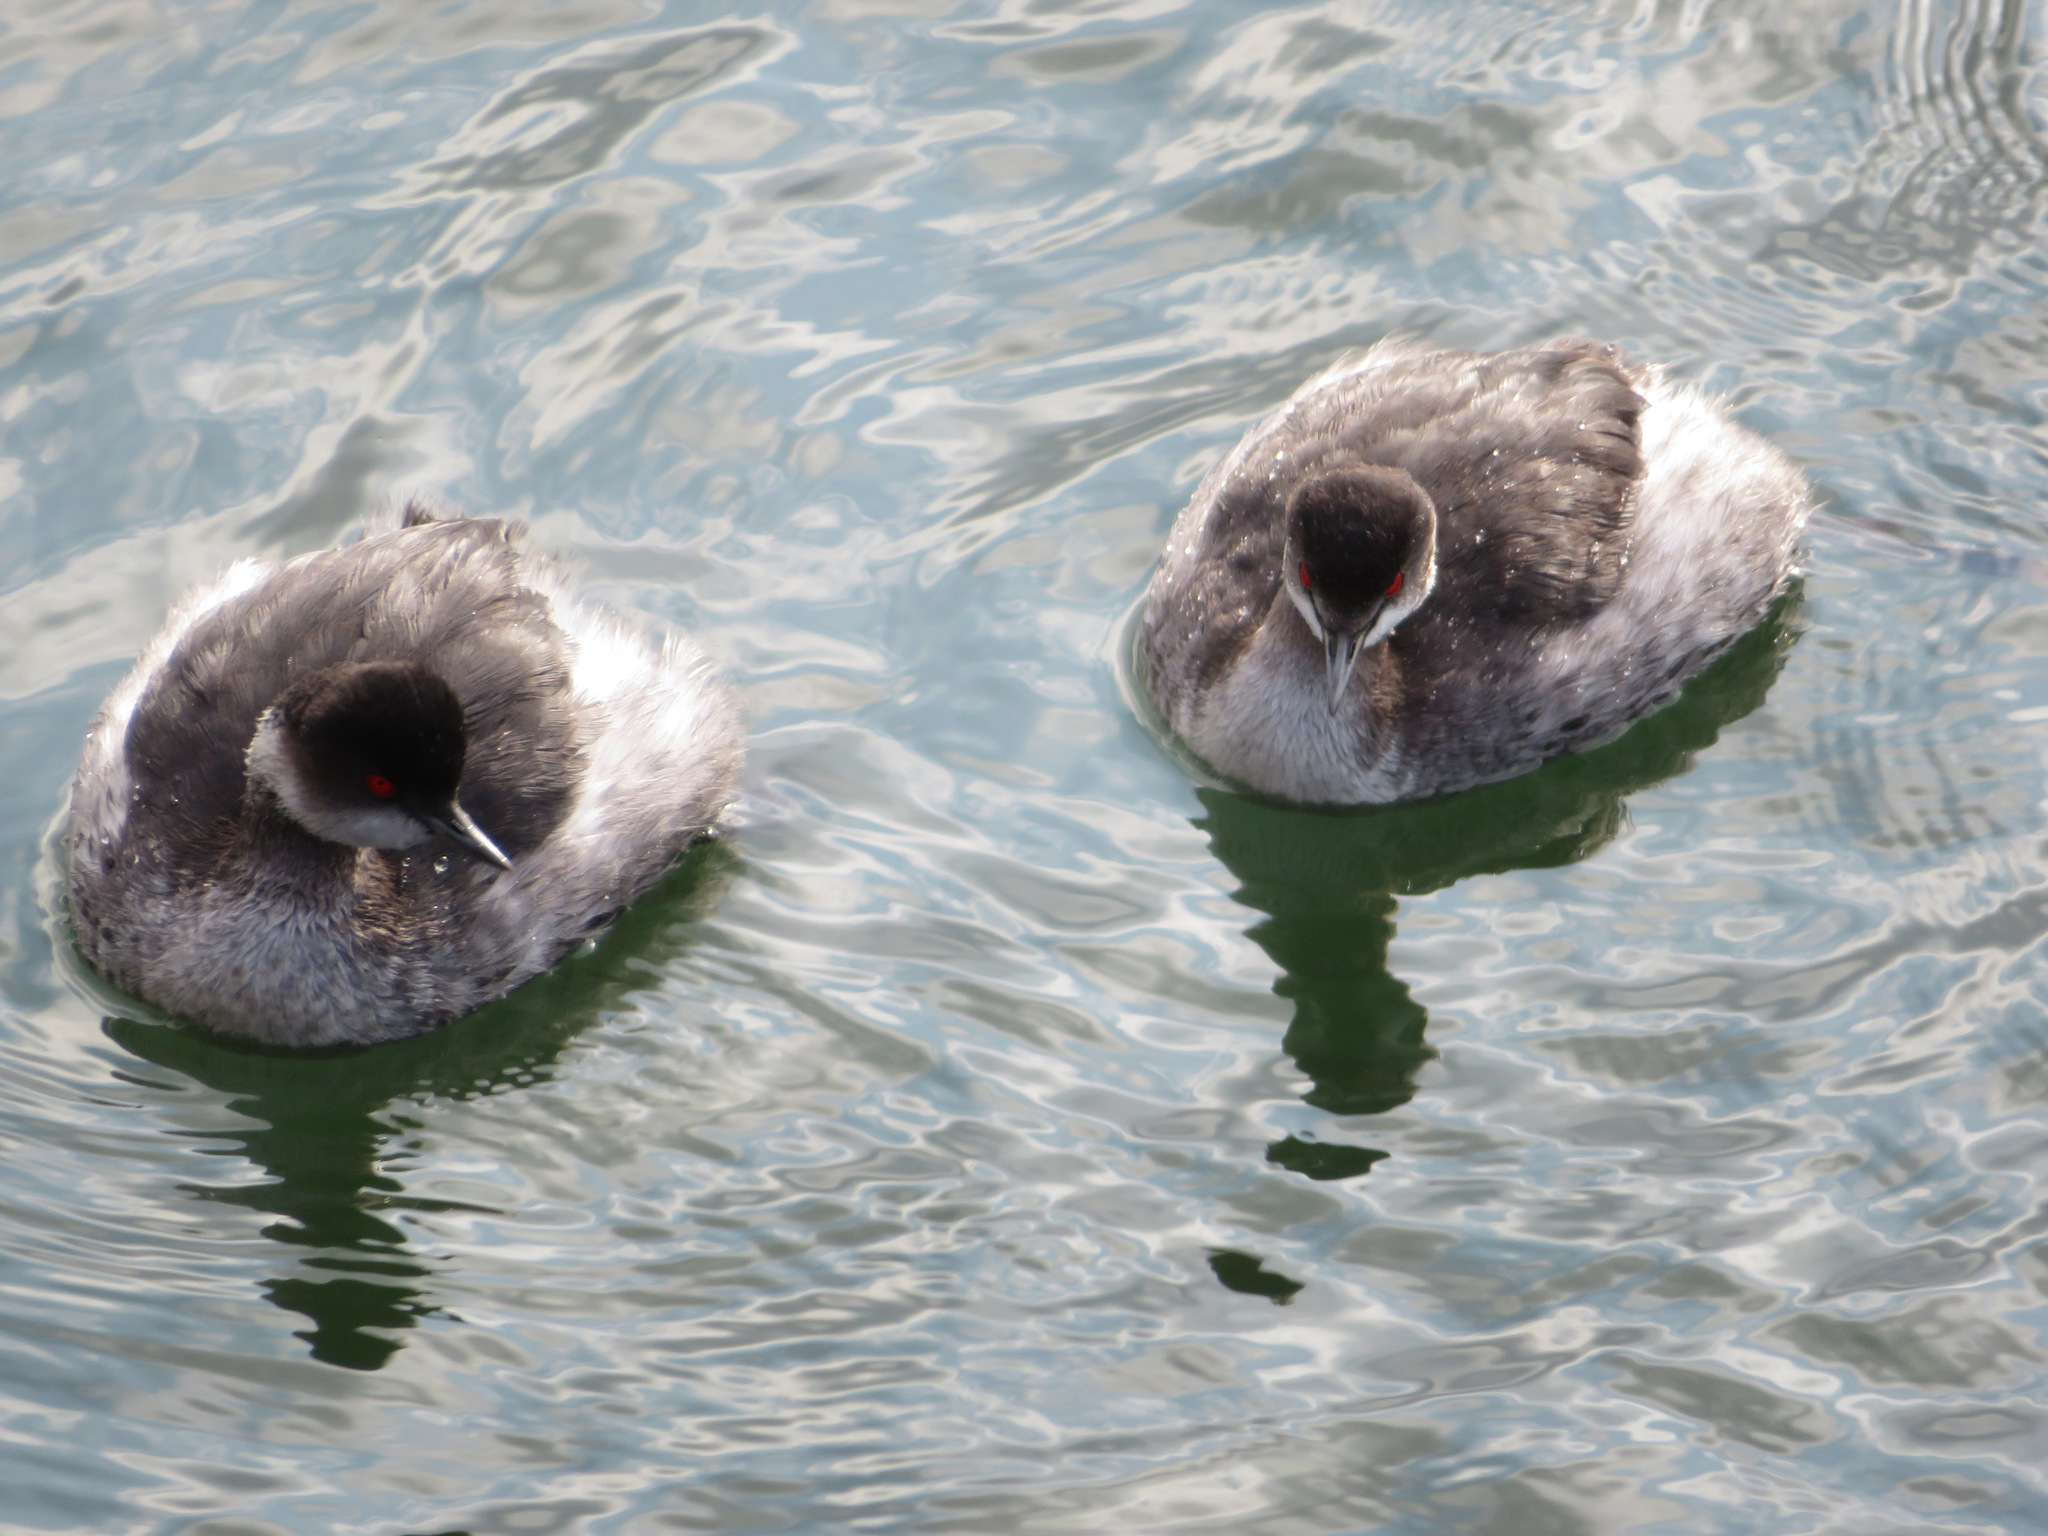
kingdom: Animalia
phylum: Chordata
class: Aves
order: Podicipediformes
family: Podicipedidae
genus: Podiceps
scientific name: Podiceps nigricollis
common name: Black-necked grebe
